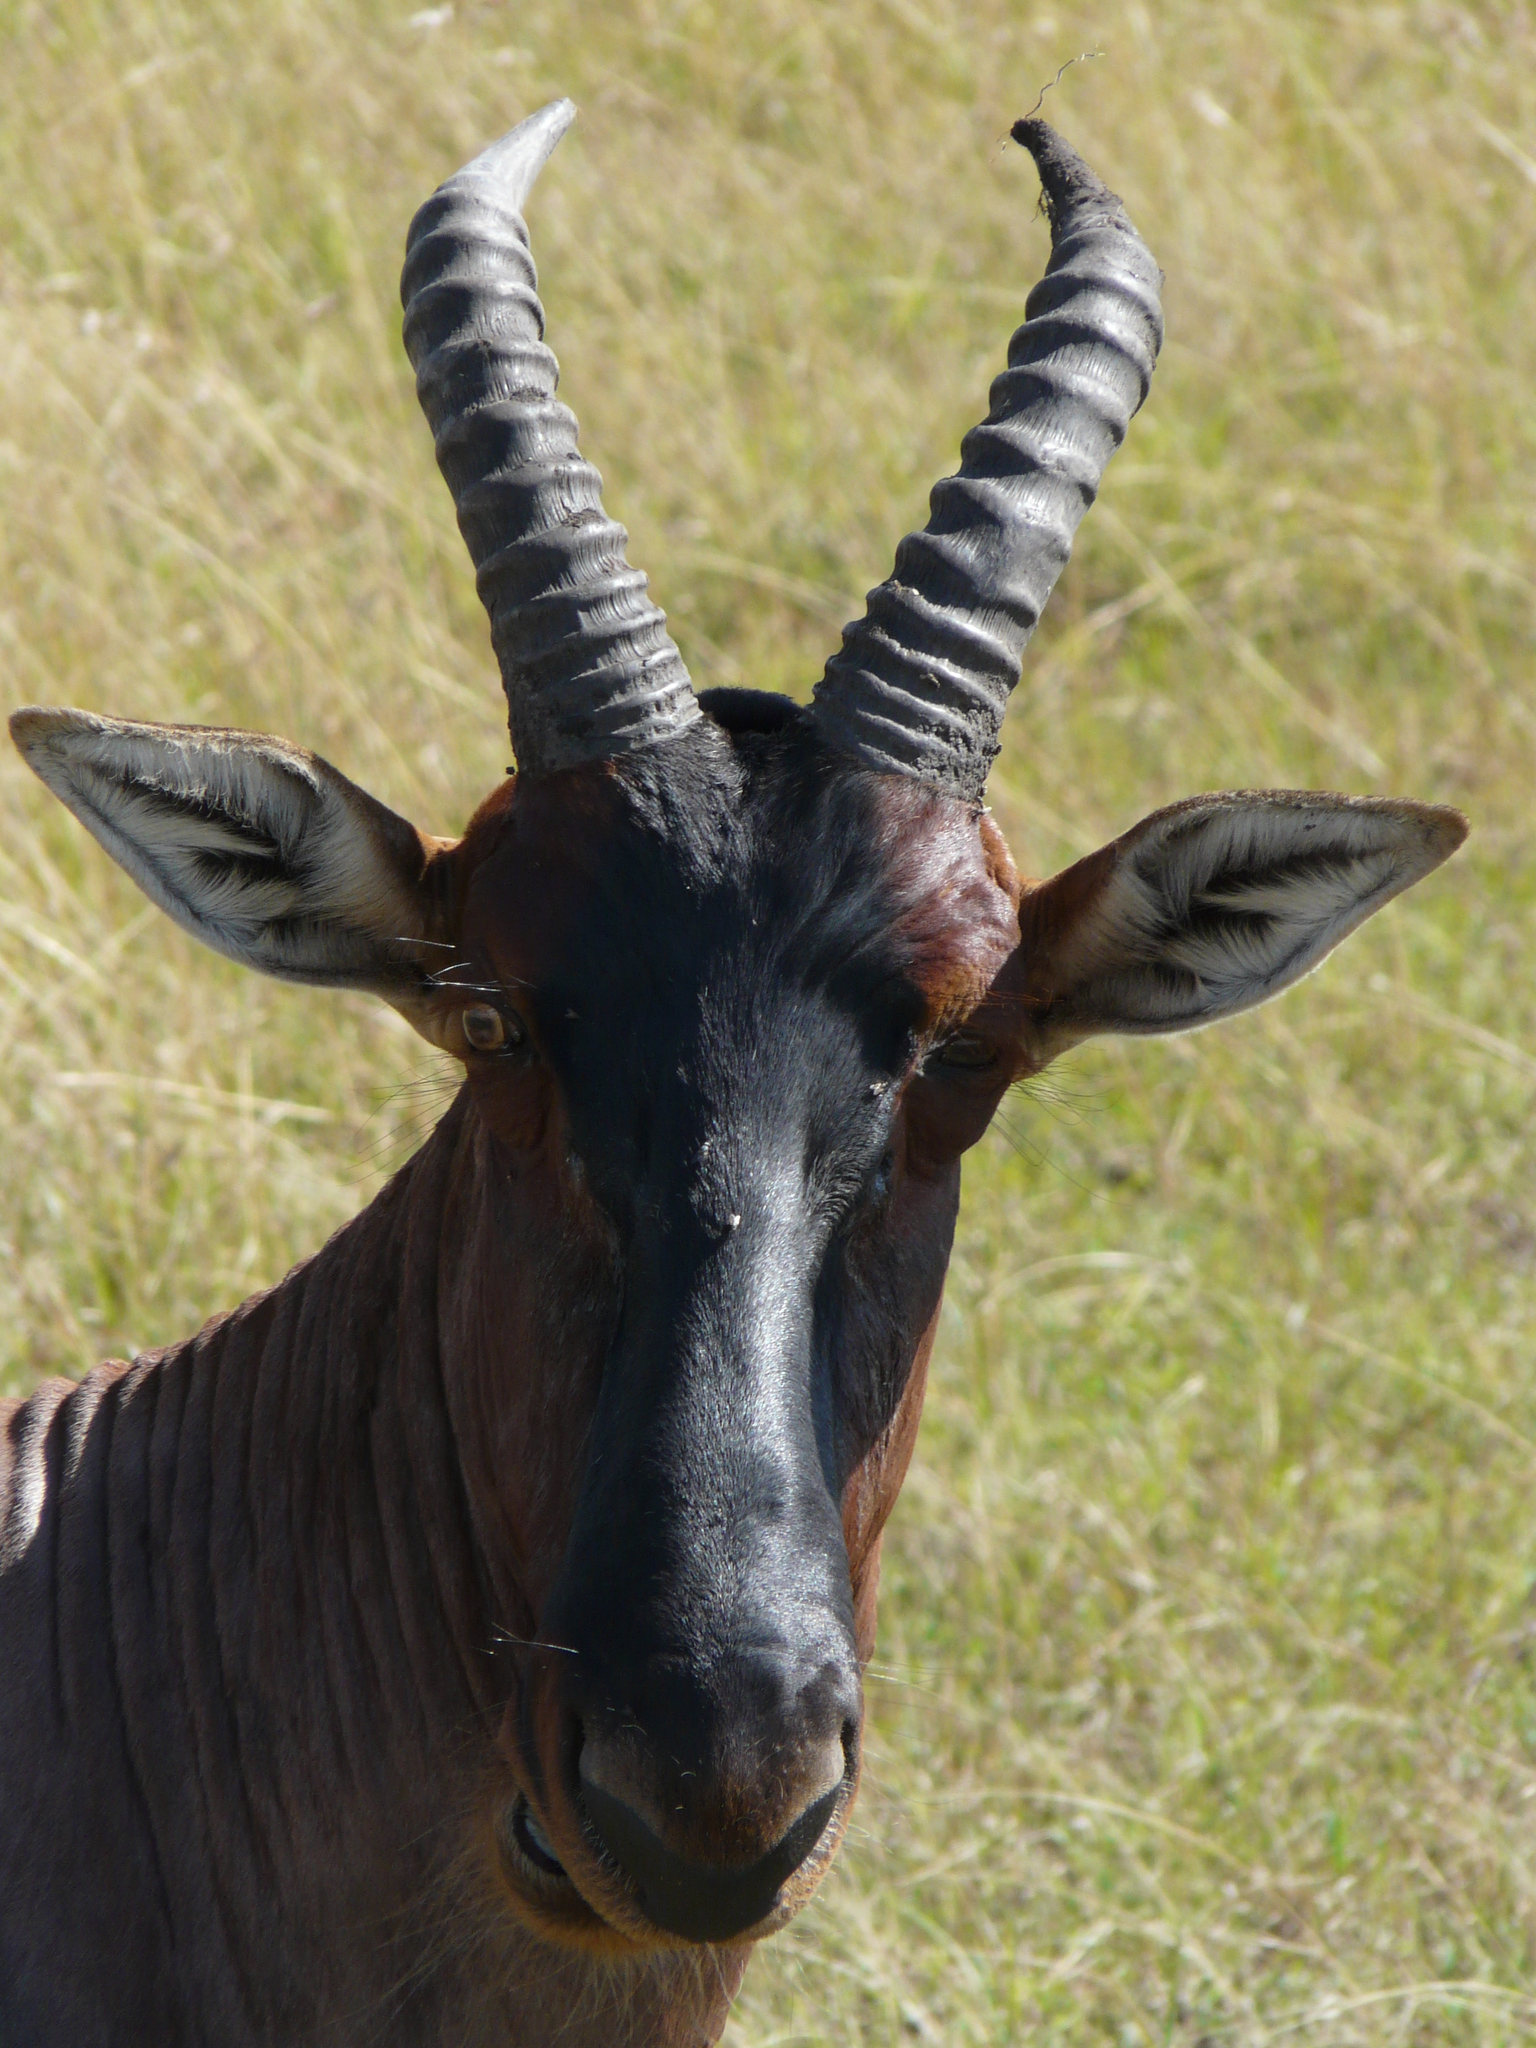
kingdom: Animalia
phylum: Chordata
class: Mammalia
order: Artiodactyla
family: Bovidae
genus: Damaliscus
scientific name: Damaliscus korrigum
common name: Topi
